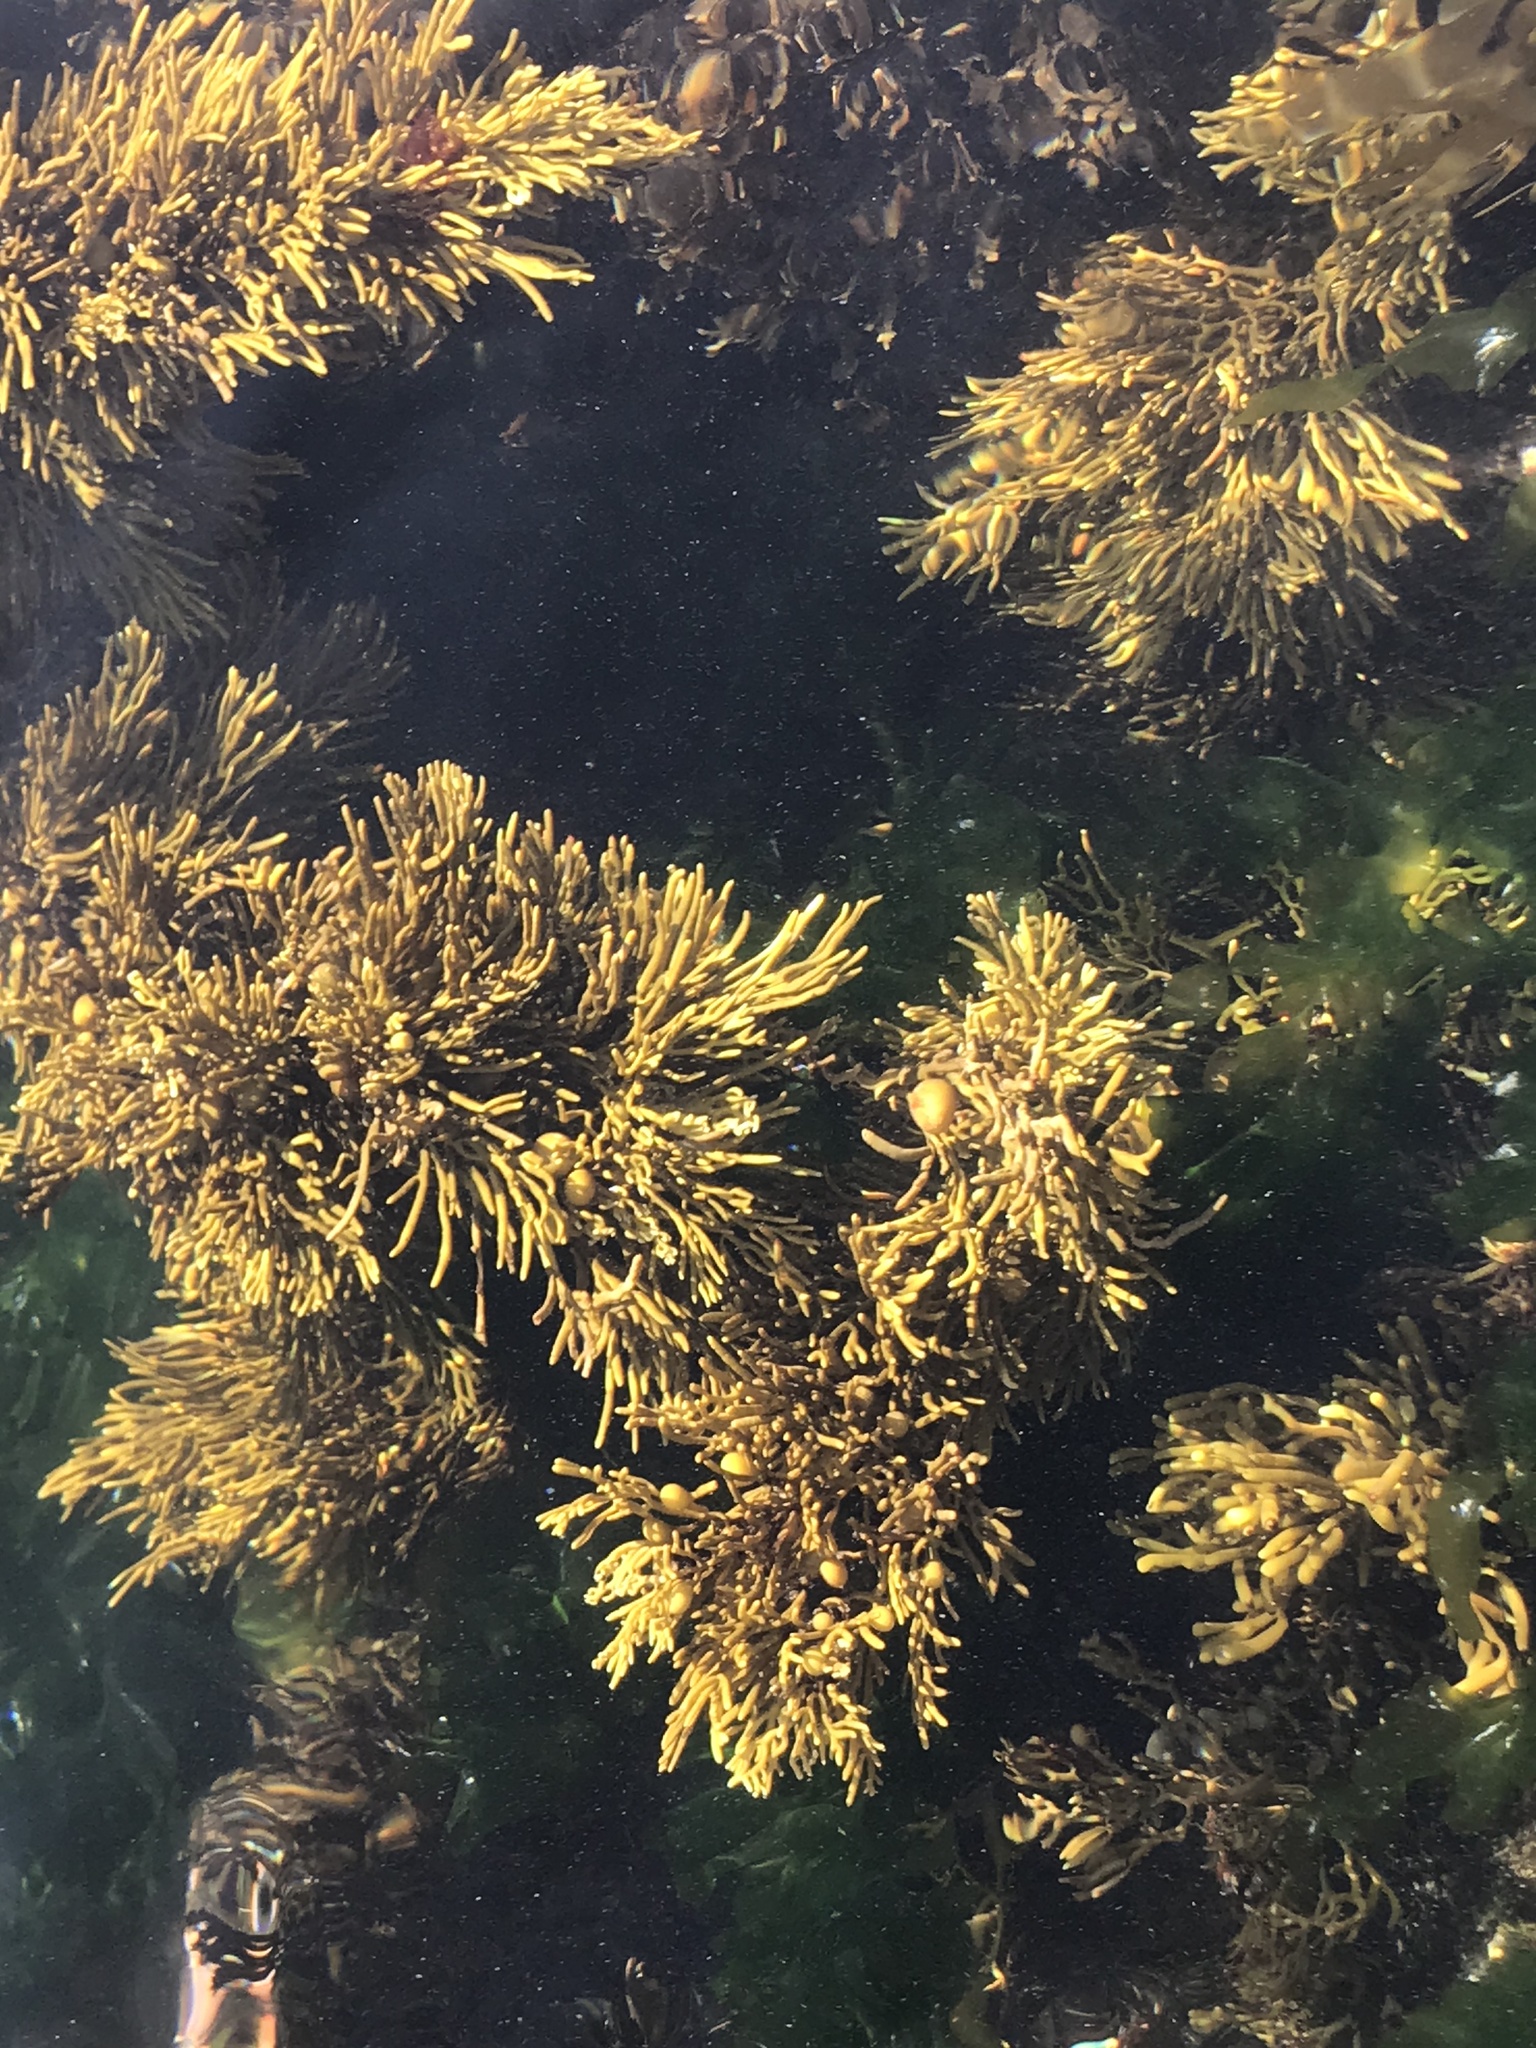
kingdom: Chromista
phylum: Ochrophyta
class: Phaeophyceae
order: Fucales
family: Sargassaceae
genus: Cystophora
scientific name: Cystophora retroflexa
